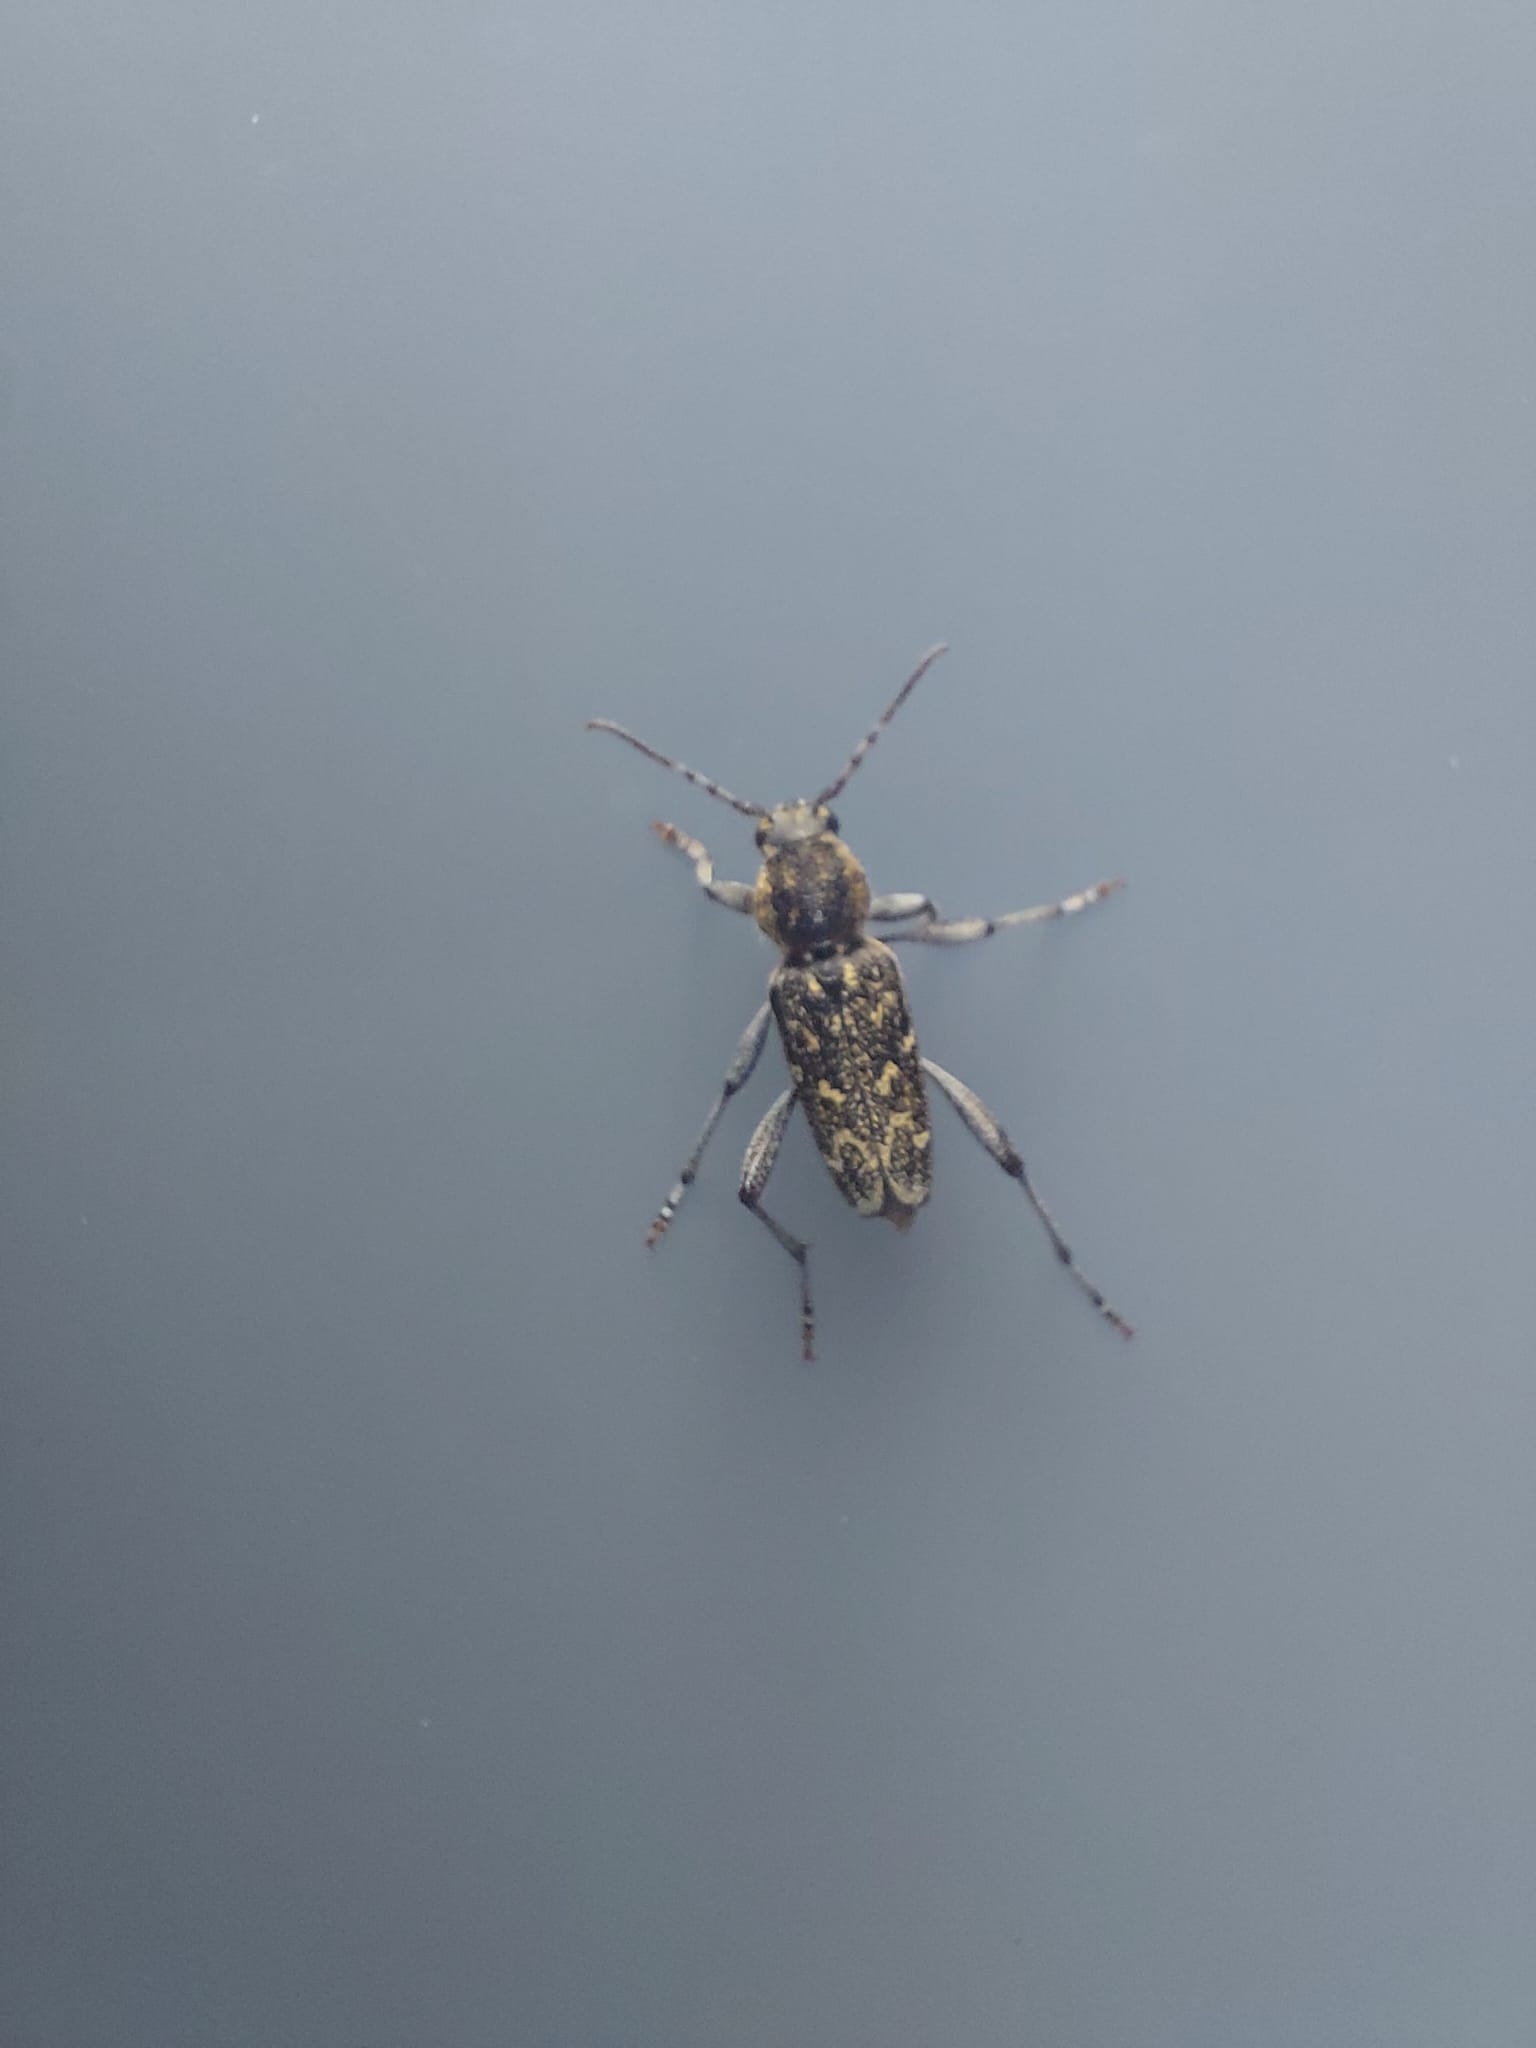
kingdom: Animalia
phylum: Arthropoda
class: Insecta
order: Coleoptera
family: Cerambycidae
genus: Xylotrechus
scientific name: Xylotrechus rusticus
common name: Grey tiger long-horned beetle
